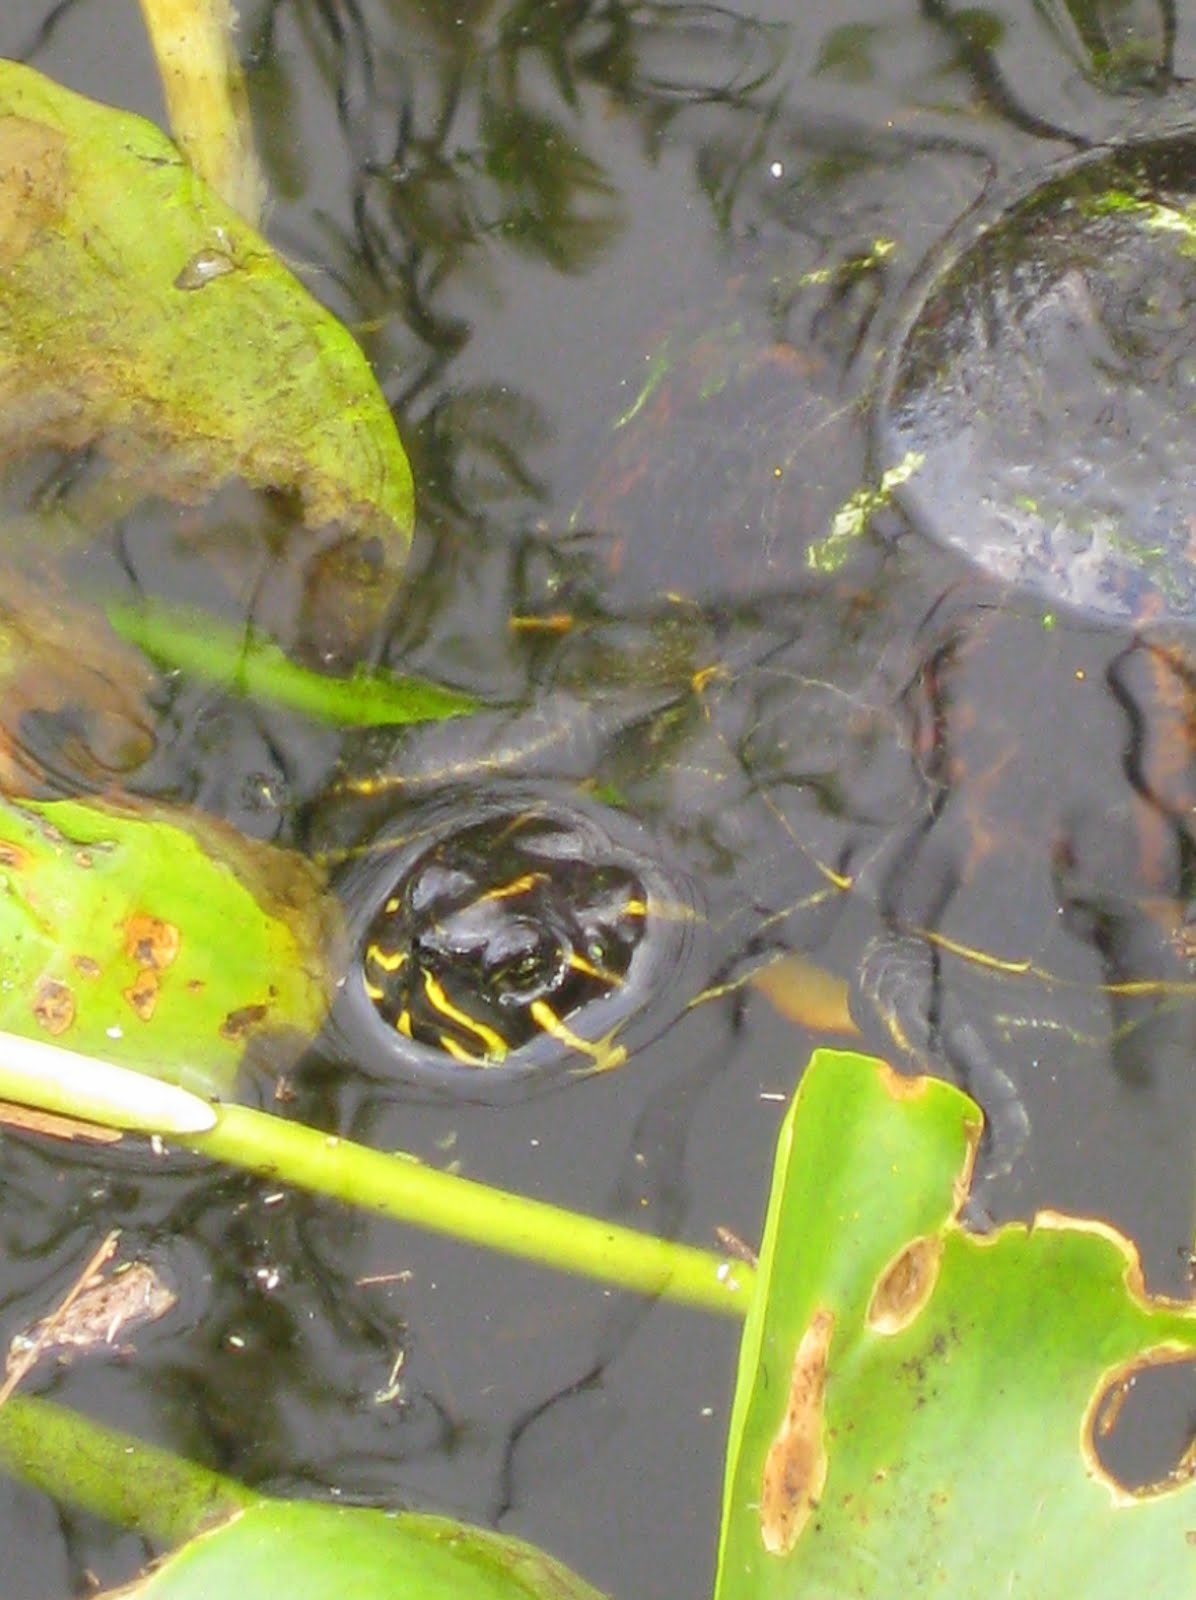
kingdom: Animalia
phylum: Chordata
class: Testudines
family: Emydidae
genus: Pseudemys
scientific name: Pseudemys nelsoni
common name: Florida red-bellied turtle
